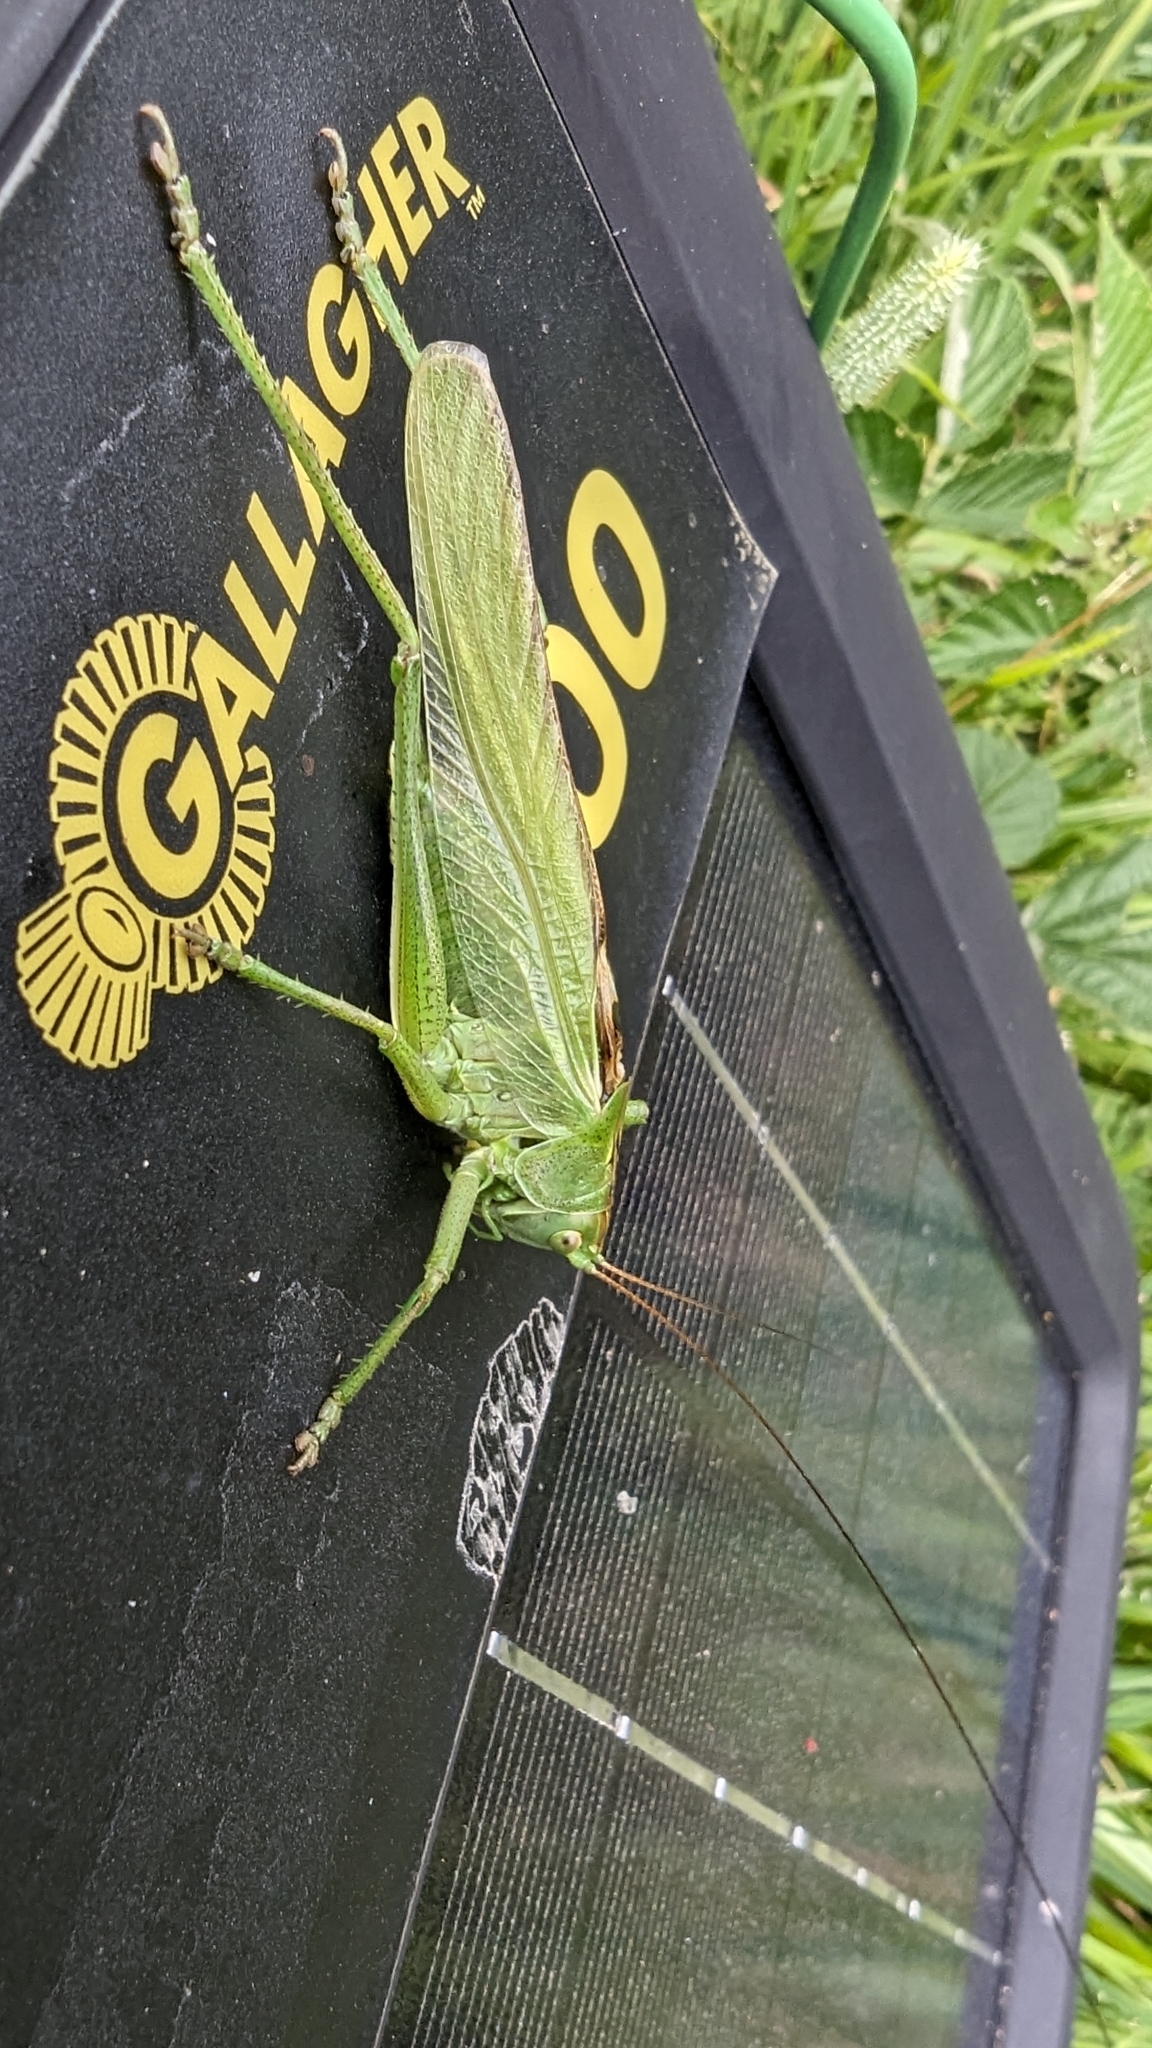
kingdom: Animalia
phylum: Arthropoda
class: Insecta
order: Orthoptera
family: Tettigoniidae
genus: Tettigonia
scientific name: Tettigonia viridissima
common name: Great green bush-cricket
